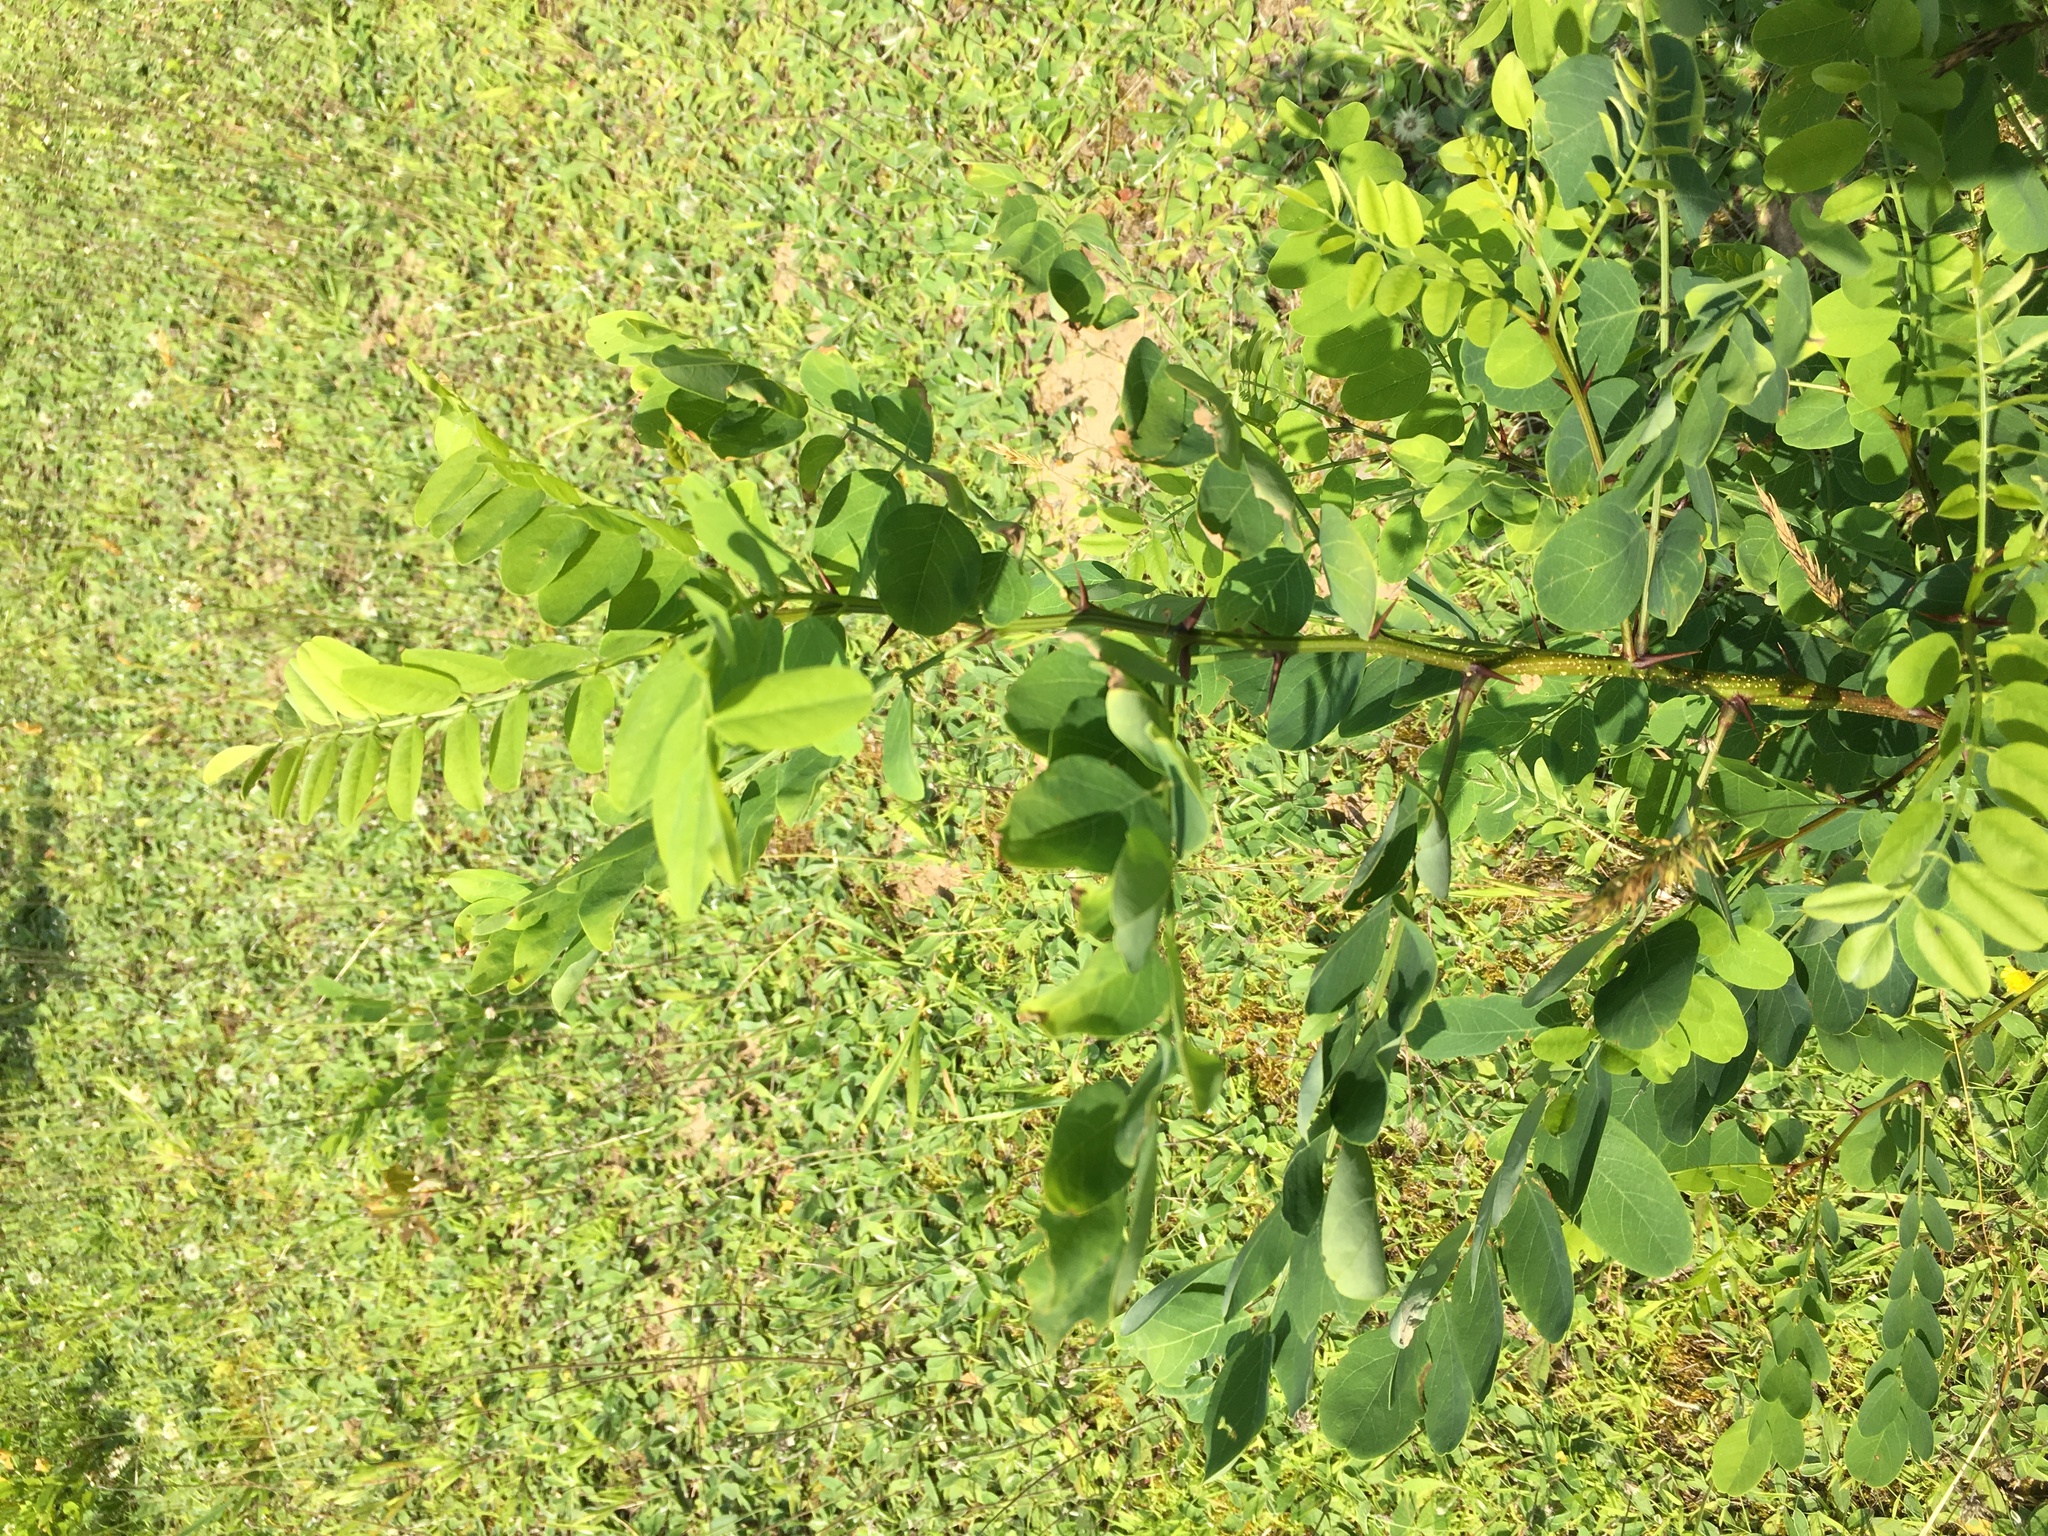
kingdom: Plantae
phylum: Tracheophyta
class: Magnoliopsida
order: Fabales
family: Fabaceae
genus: Robinia
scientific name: Robinia pseudoacacia
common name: Black locust
